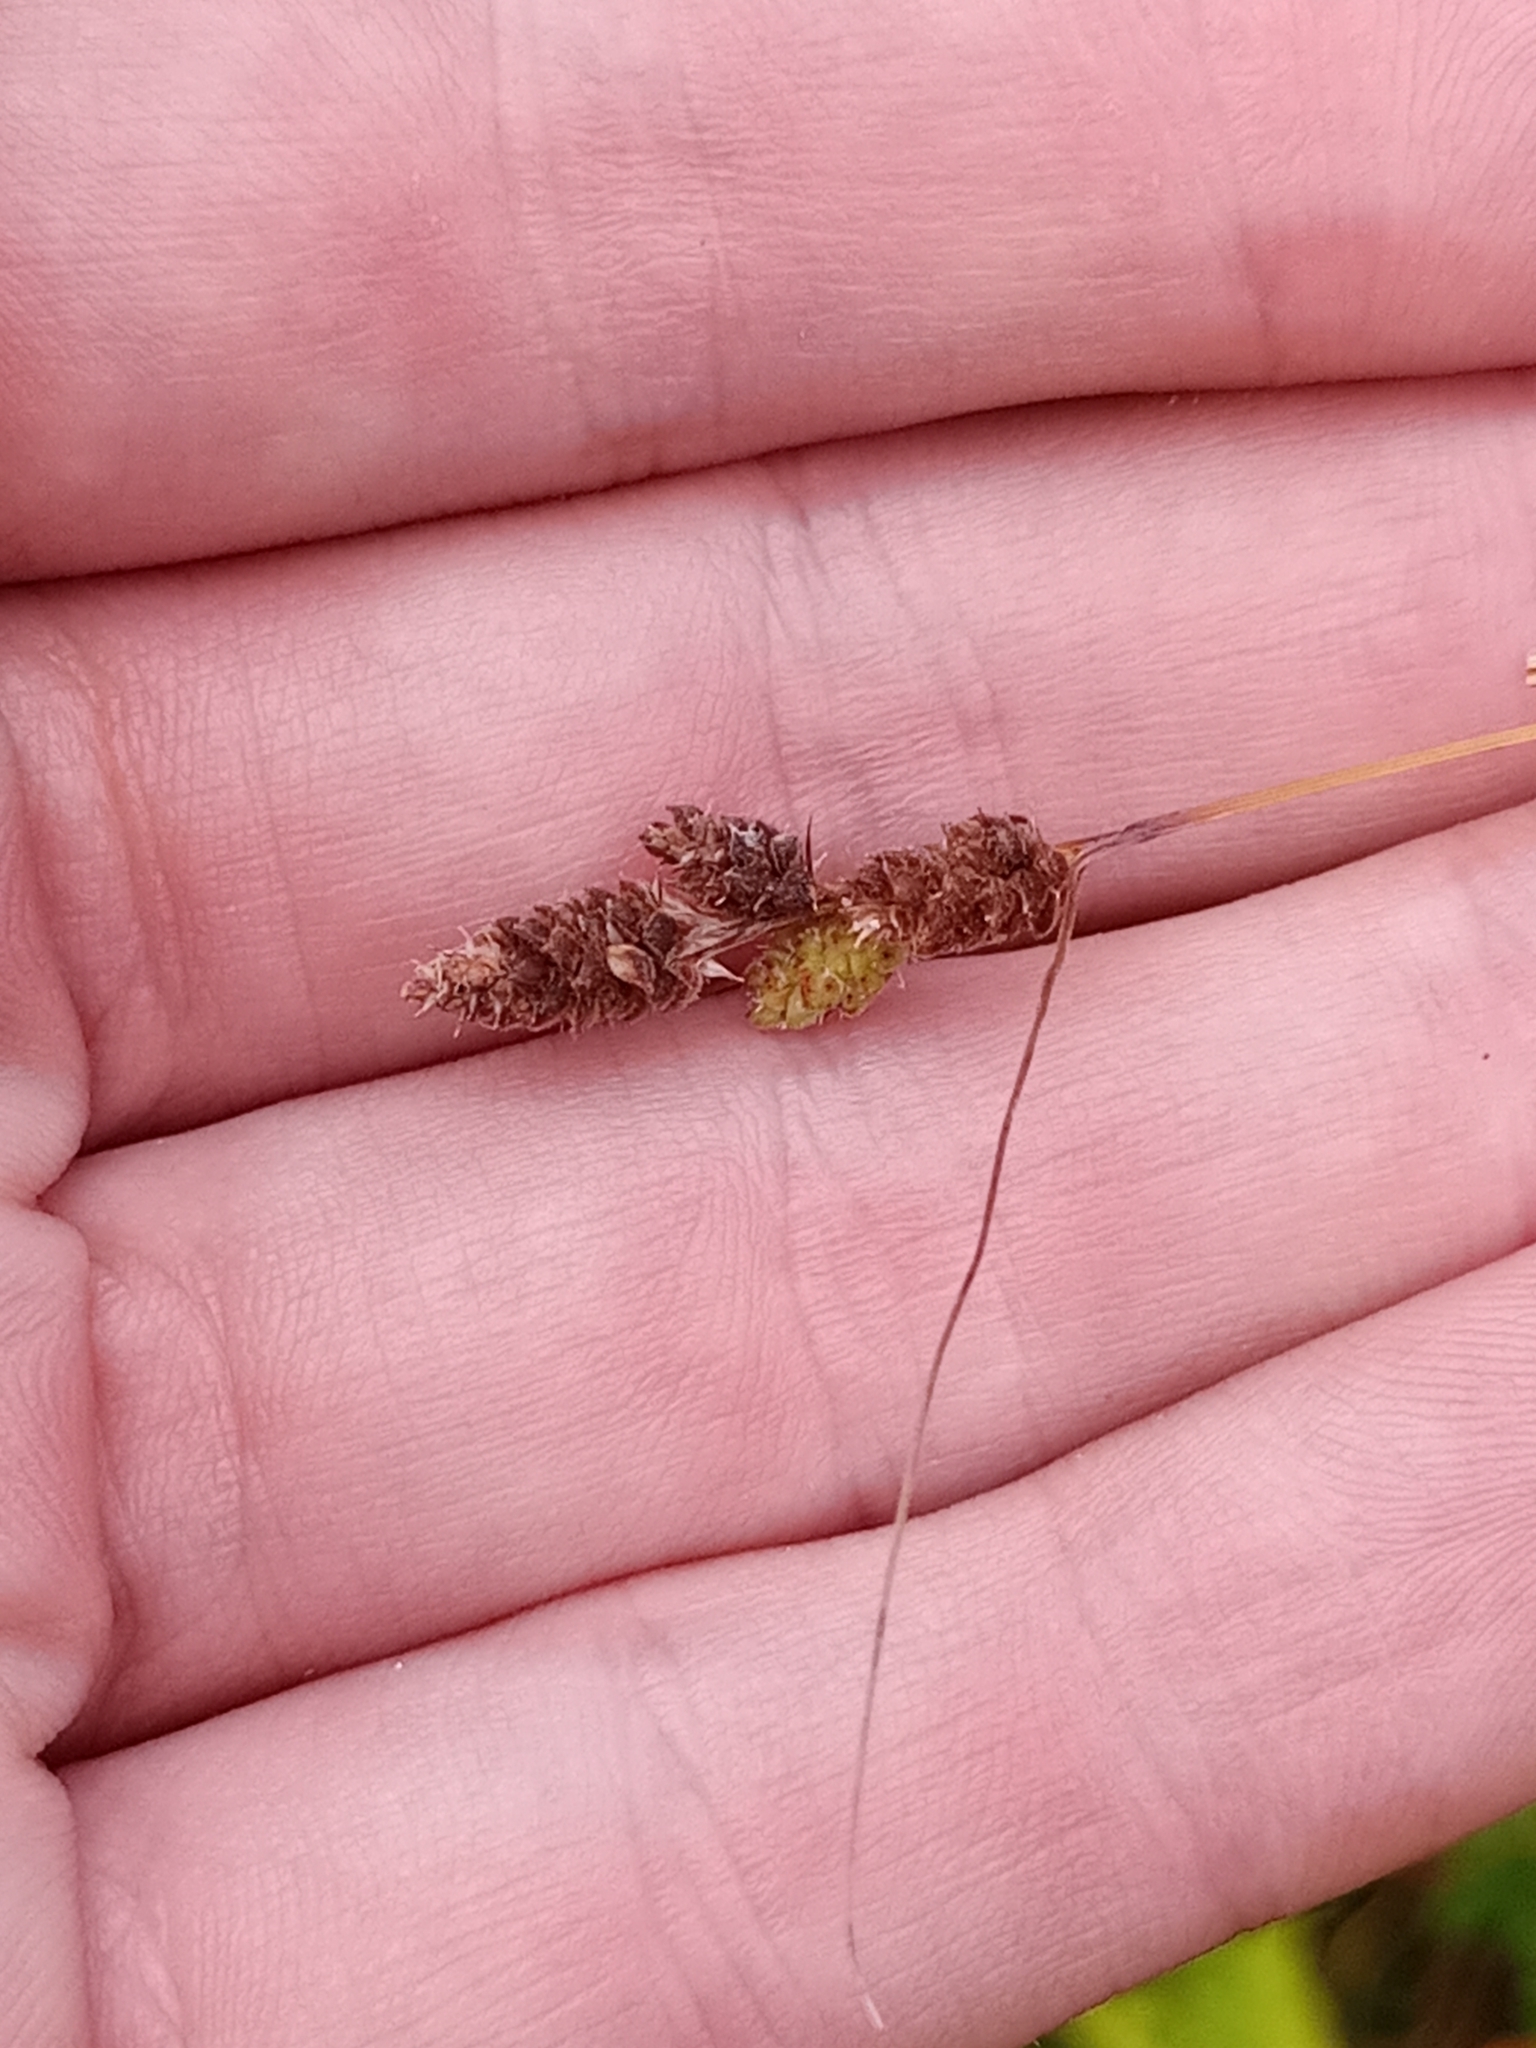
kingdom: Plantae
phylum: Tracheophyta
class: Liliopsida
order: Poales
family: Cyperaceae
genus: Carex
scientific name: Carex swanii
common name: Downy green sedge
